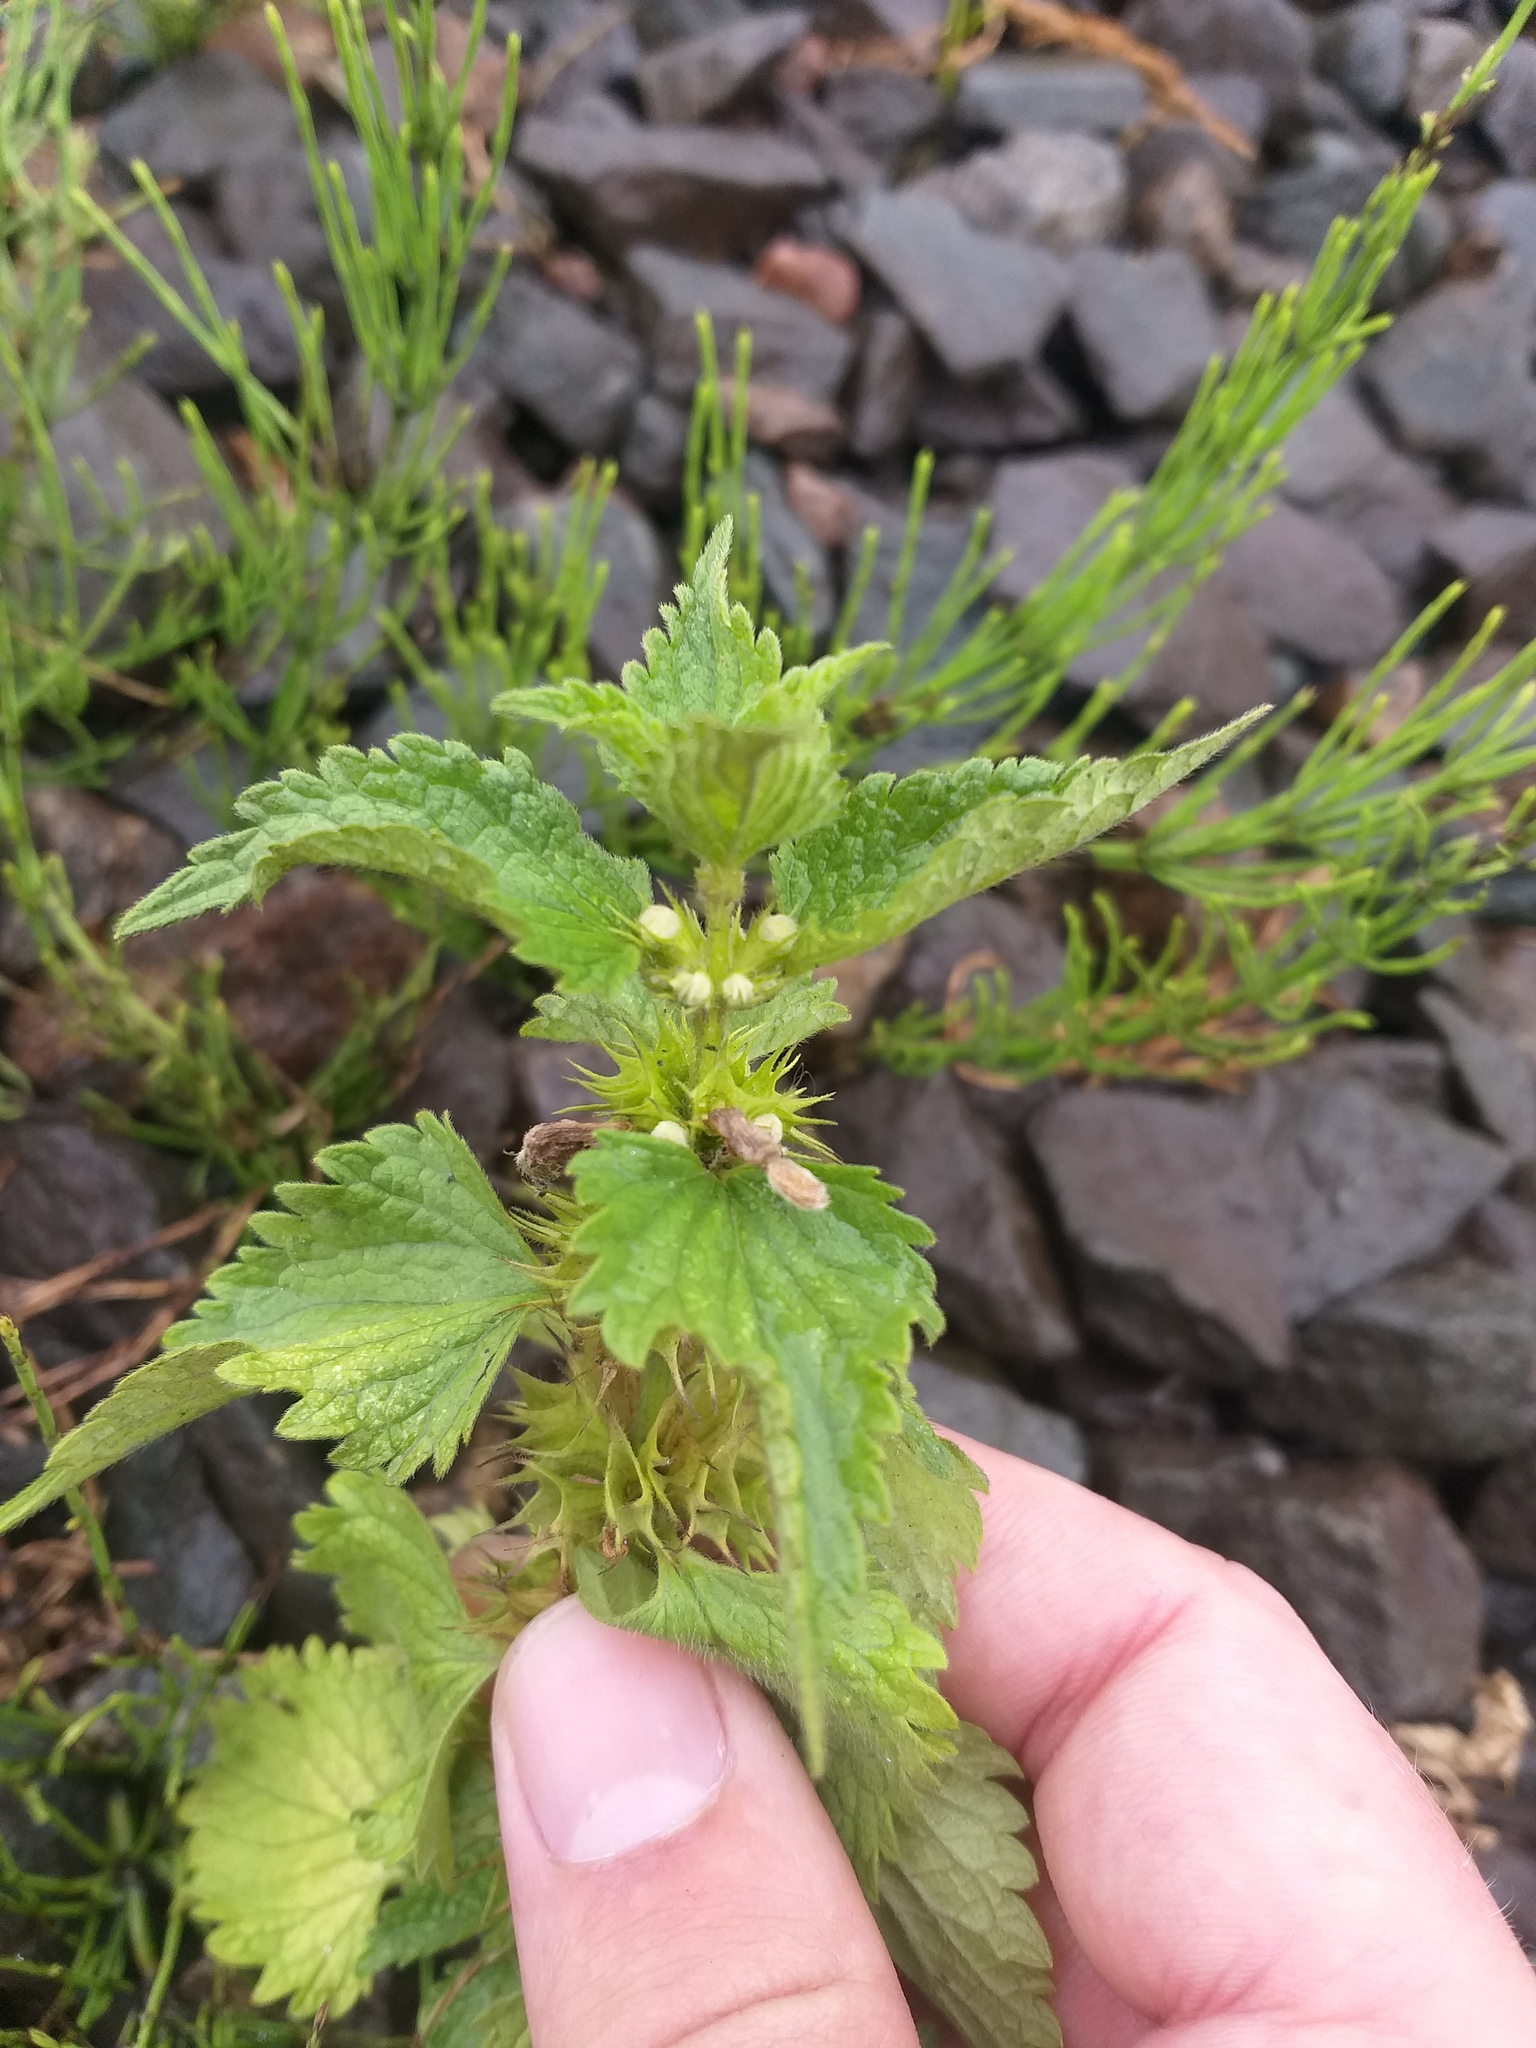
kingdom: Plantae
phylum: Tracheophyta
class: Magnoliopsida
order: Lamiales
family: Lamiaceae
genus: Lamium
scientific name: Lamium album
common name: White dead-nettle
